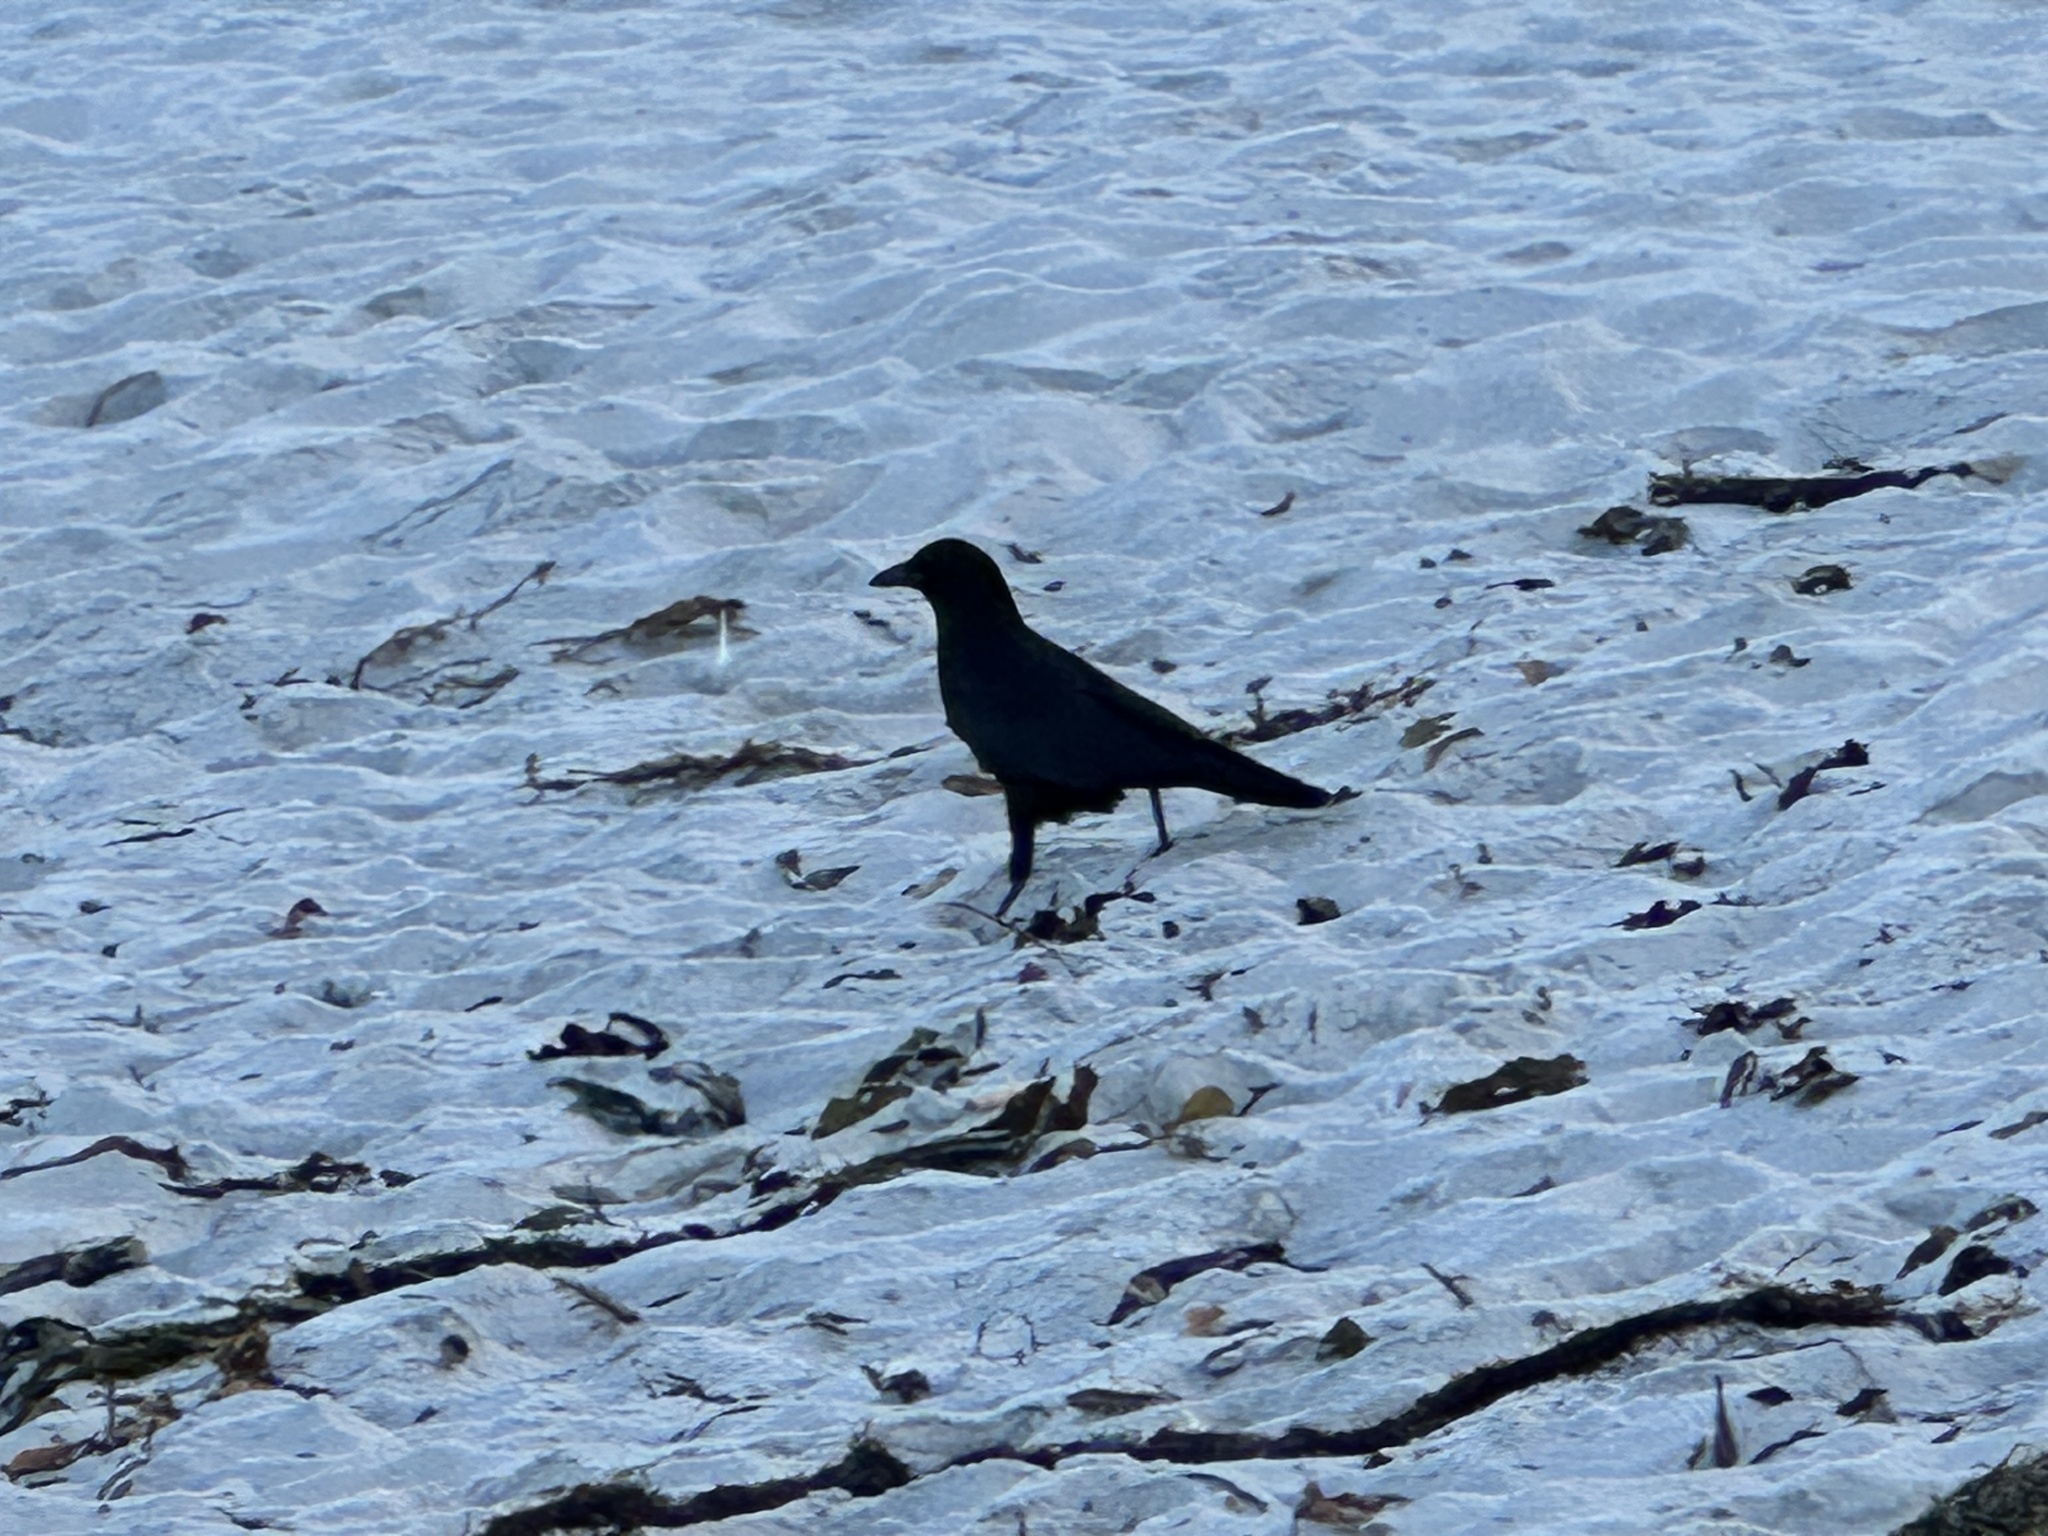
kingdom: Animalia
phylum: Chordata
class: Aves
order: Passeriformes
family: Corvidae
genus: Corvus
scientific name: Corvus brachyrhynchos
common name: American crow
